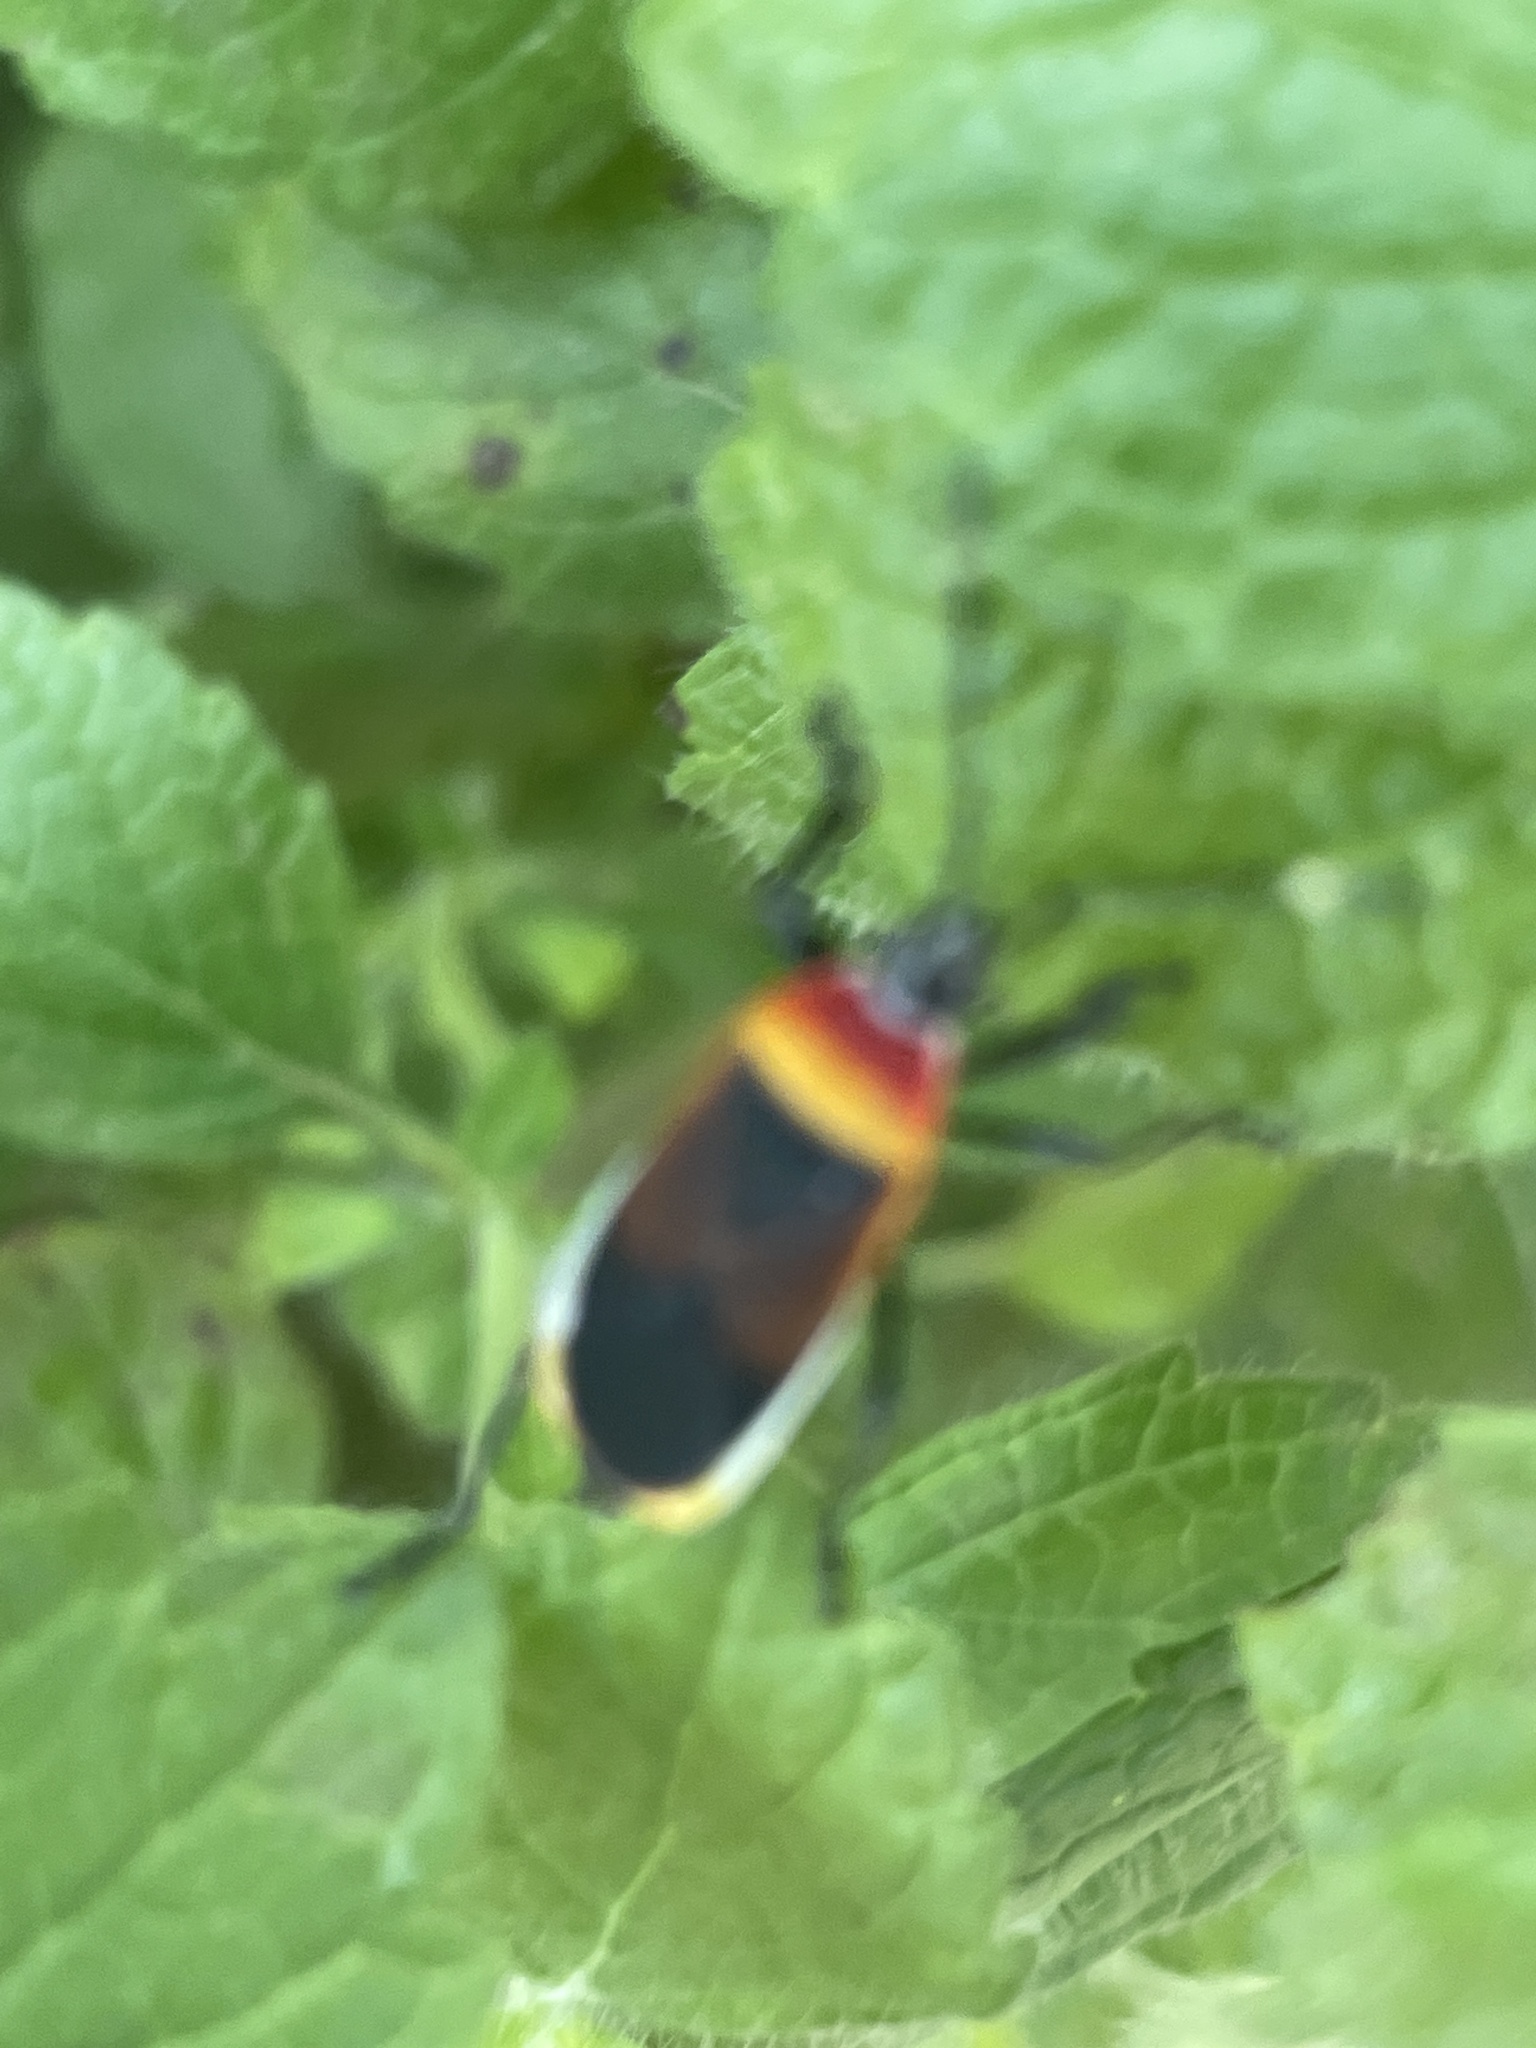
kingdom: Animalia
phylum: Arthropoda
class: Insecta
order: Hemiptera
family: Pyrrhocoridae
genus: Dindymus
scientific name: Dindymus
